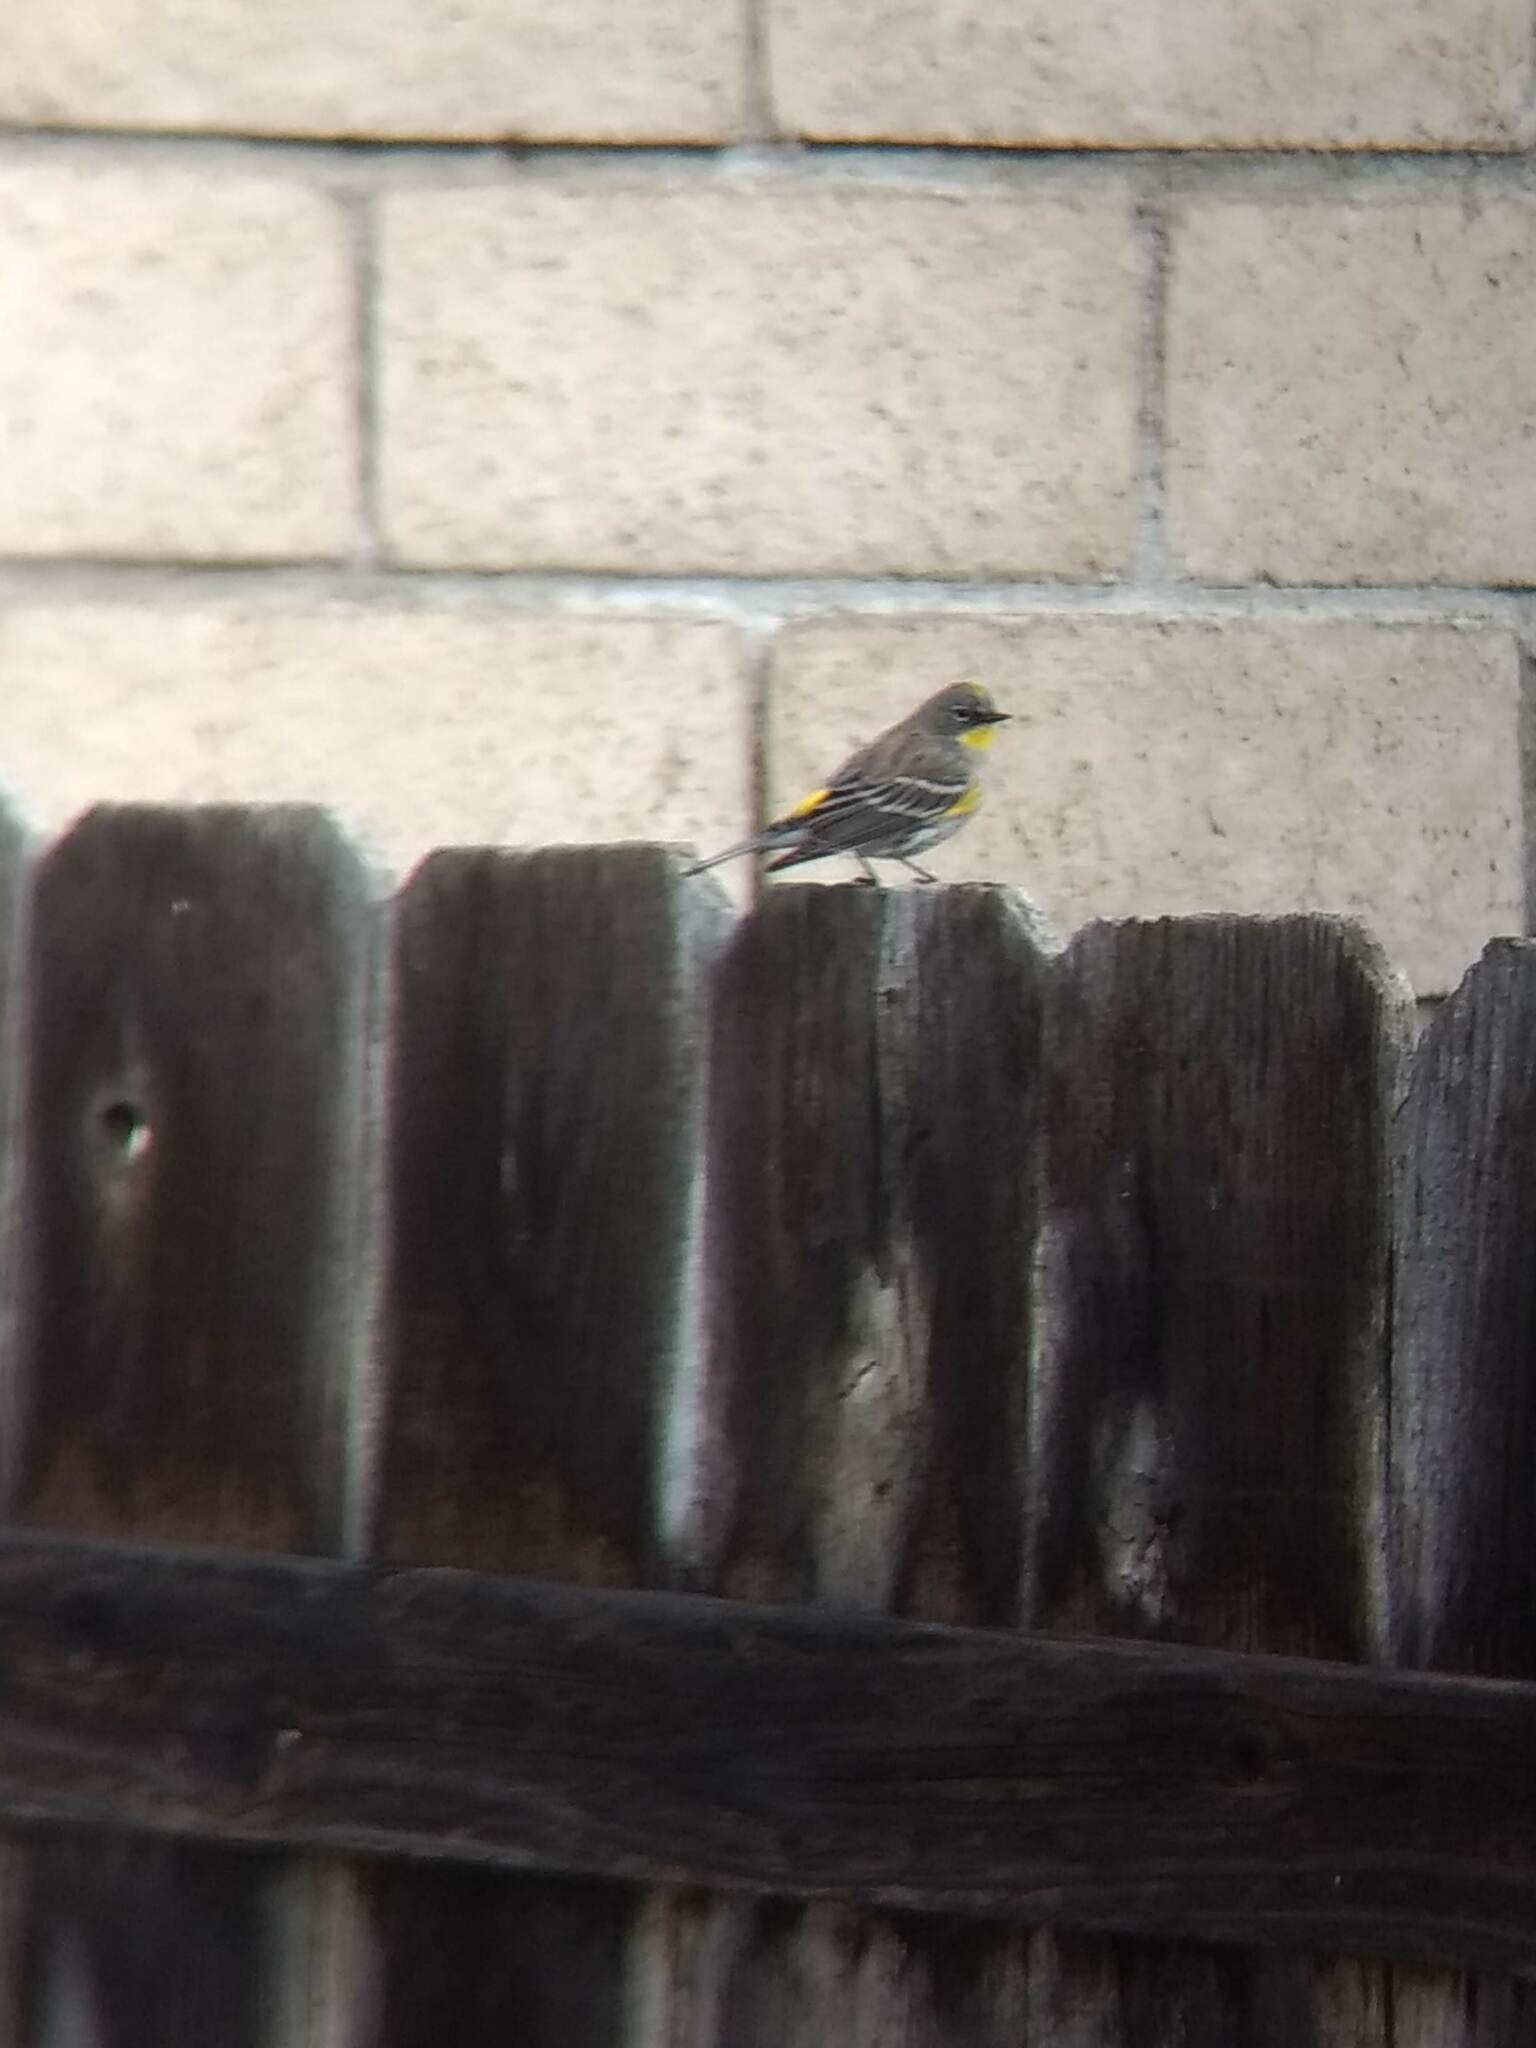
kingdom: Animalia
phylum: Chordata
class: Aves
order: Passeriformes
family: Parulidae
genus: Setophaga
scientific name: Setophaga coronata
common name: Myrtle warbler
